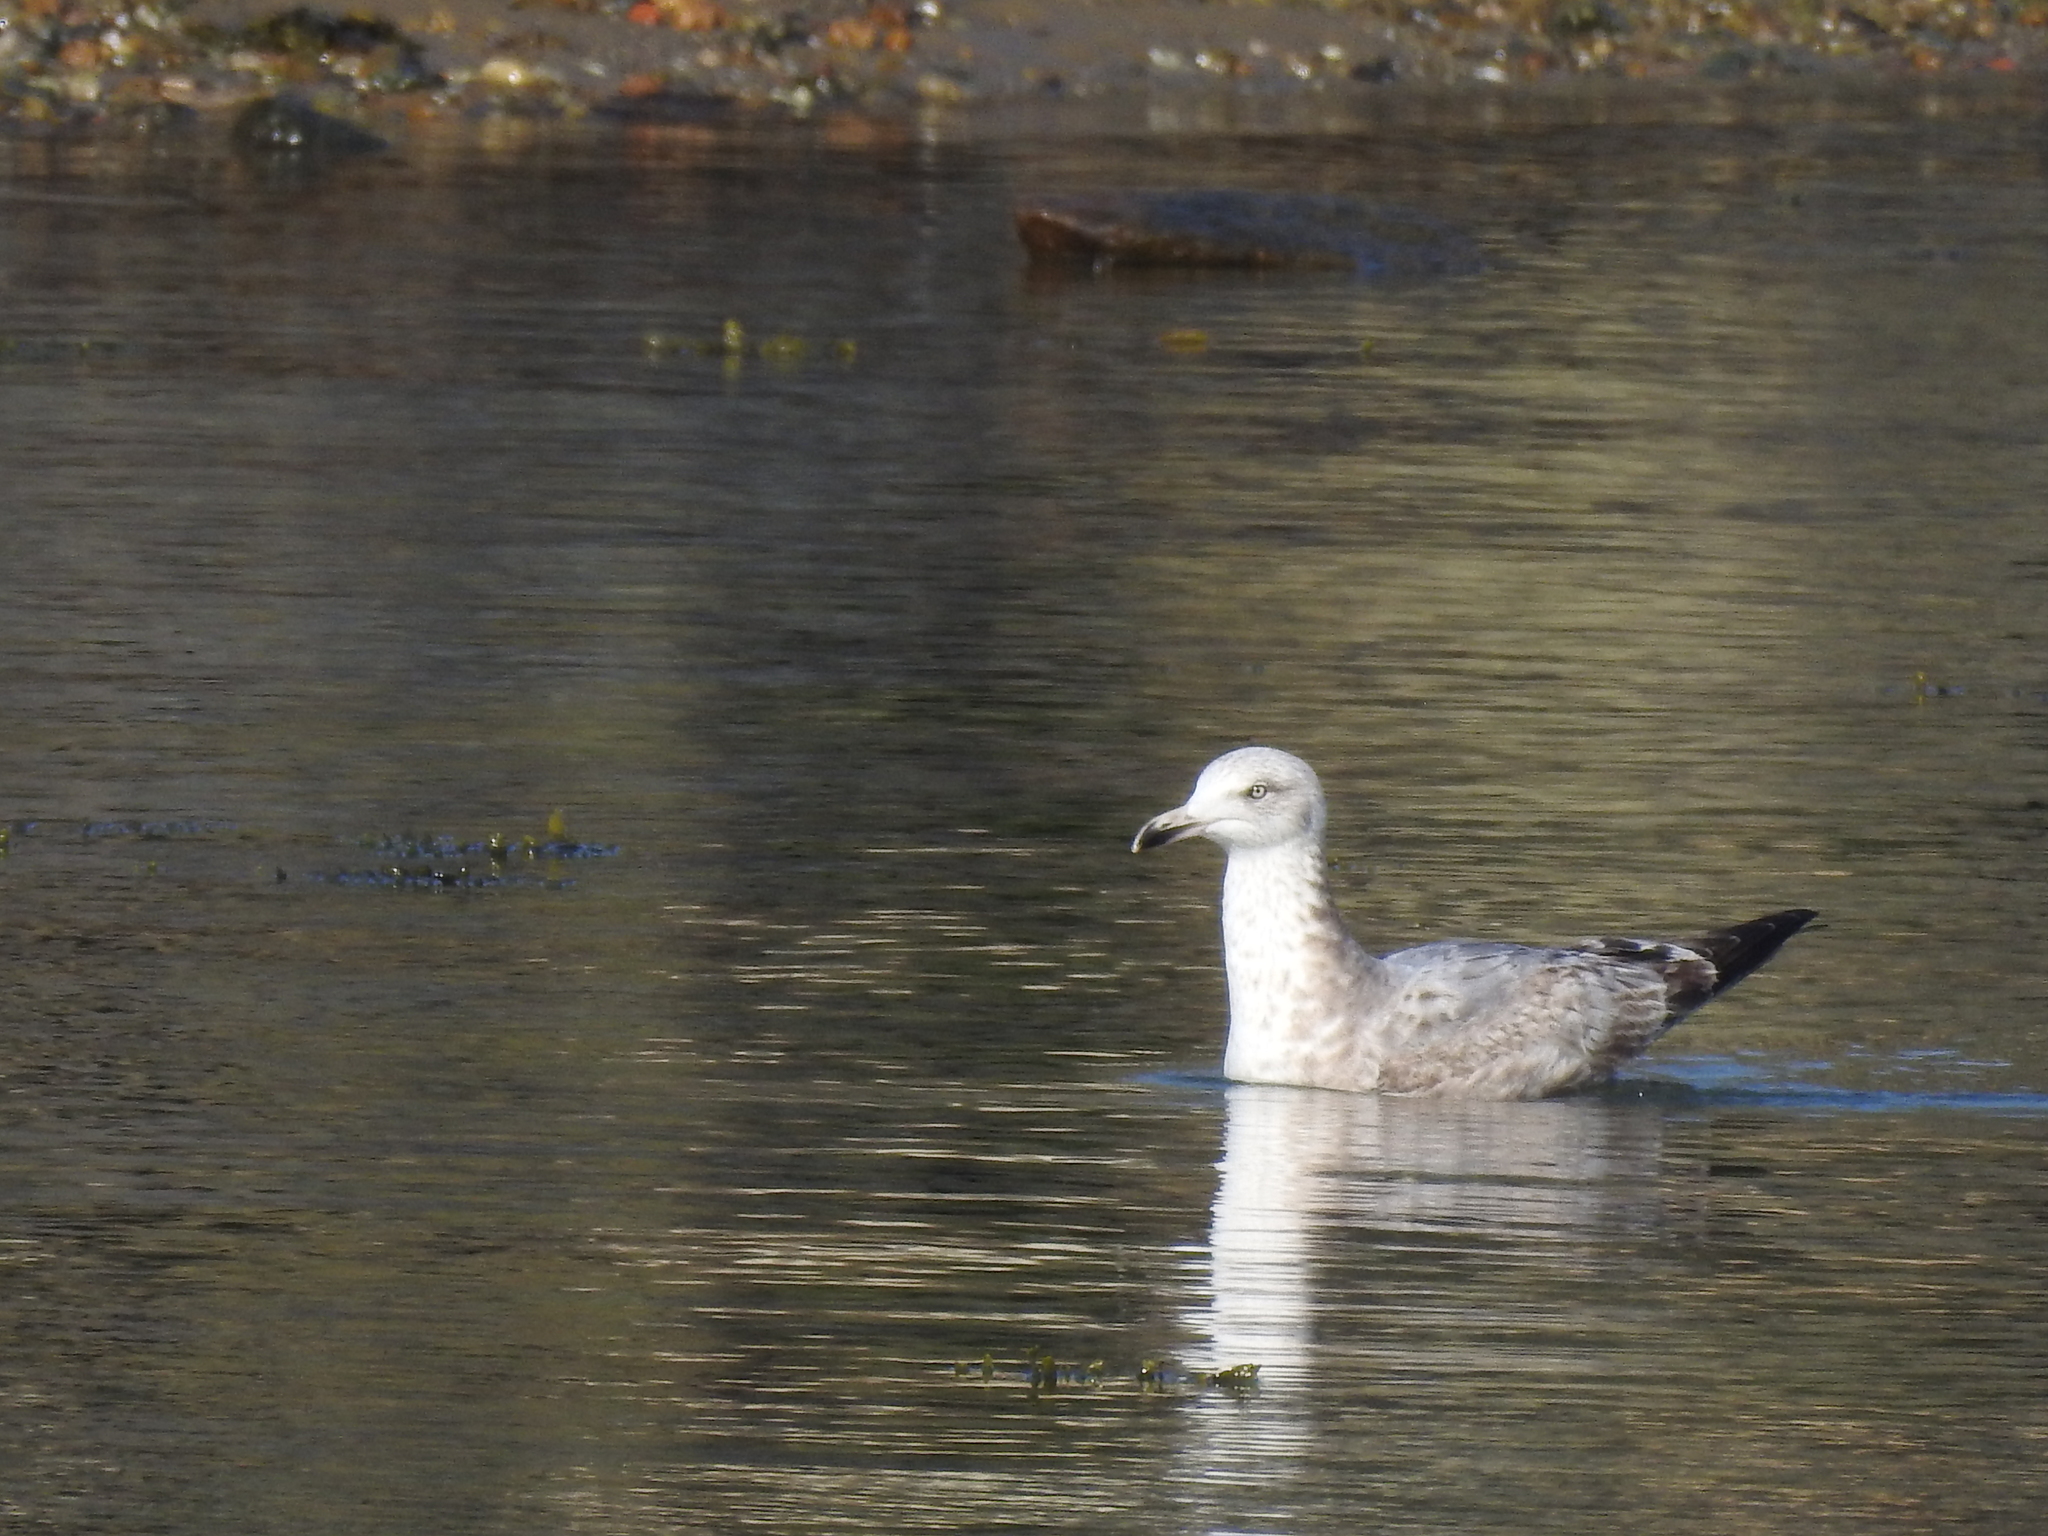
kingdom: Animalia
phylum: Chordata
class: Aves
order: Charadriiformes
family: Laridae
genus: Larus
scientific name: Larus argentatus
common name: Herring gull
